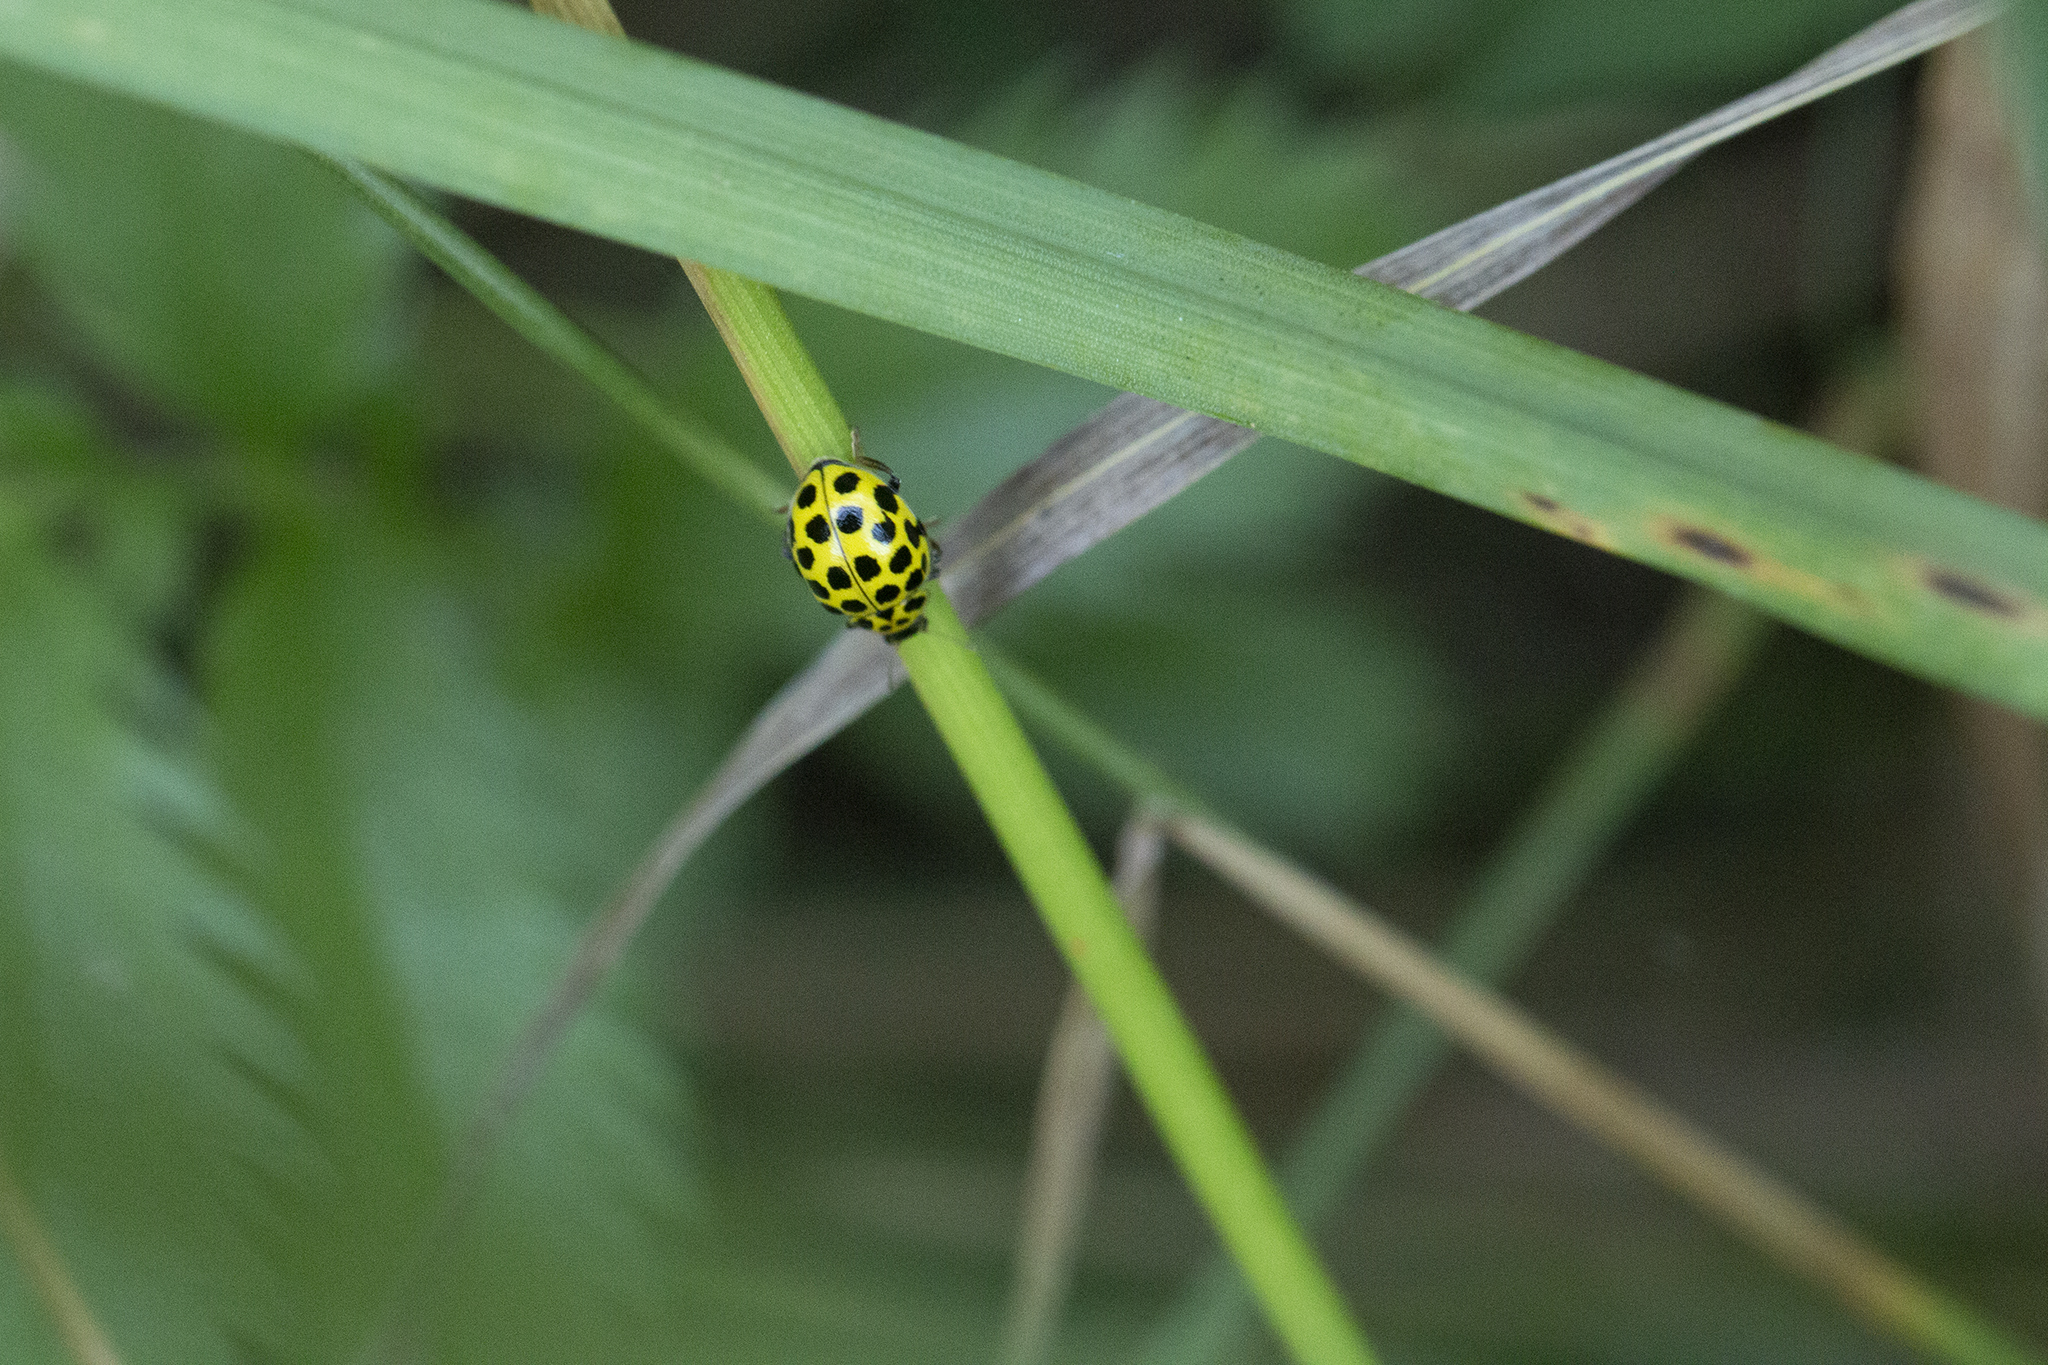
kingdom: Animalia
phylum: Arthropoda
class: Insecta
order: Coleoptera
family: Coccinellidae
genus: Psyllobora
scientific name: Psyllobora vigintiduopunctata
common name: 22-spot ladybird
